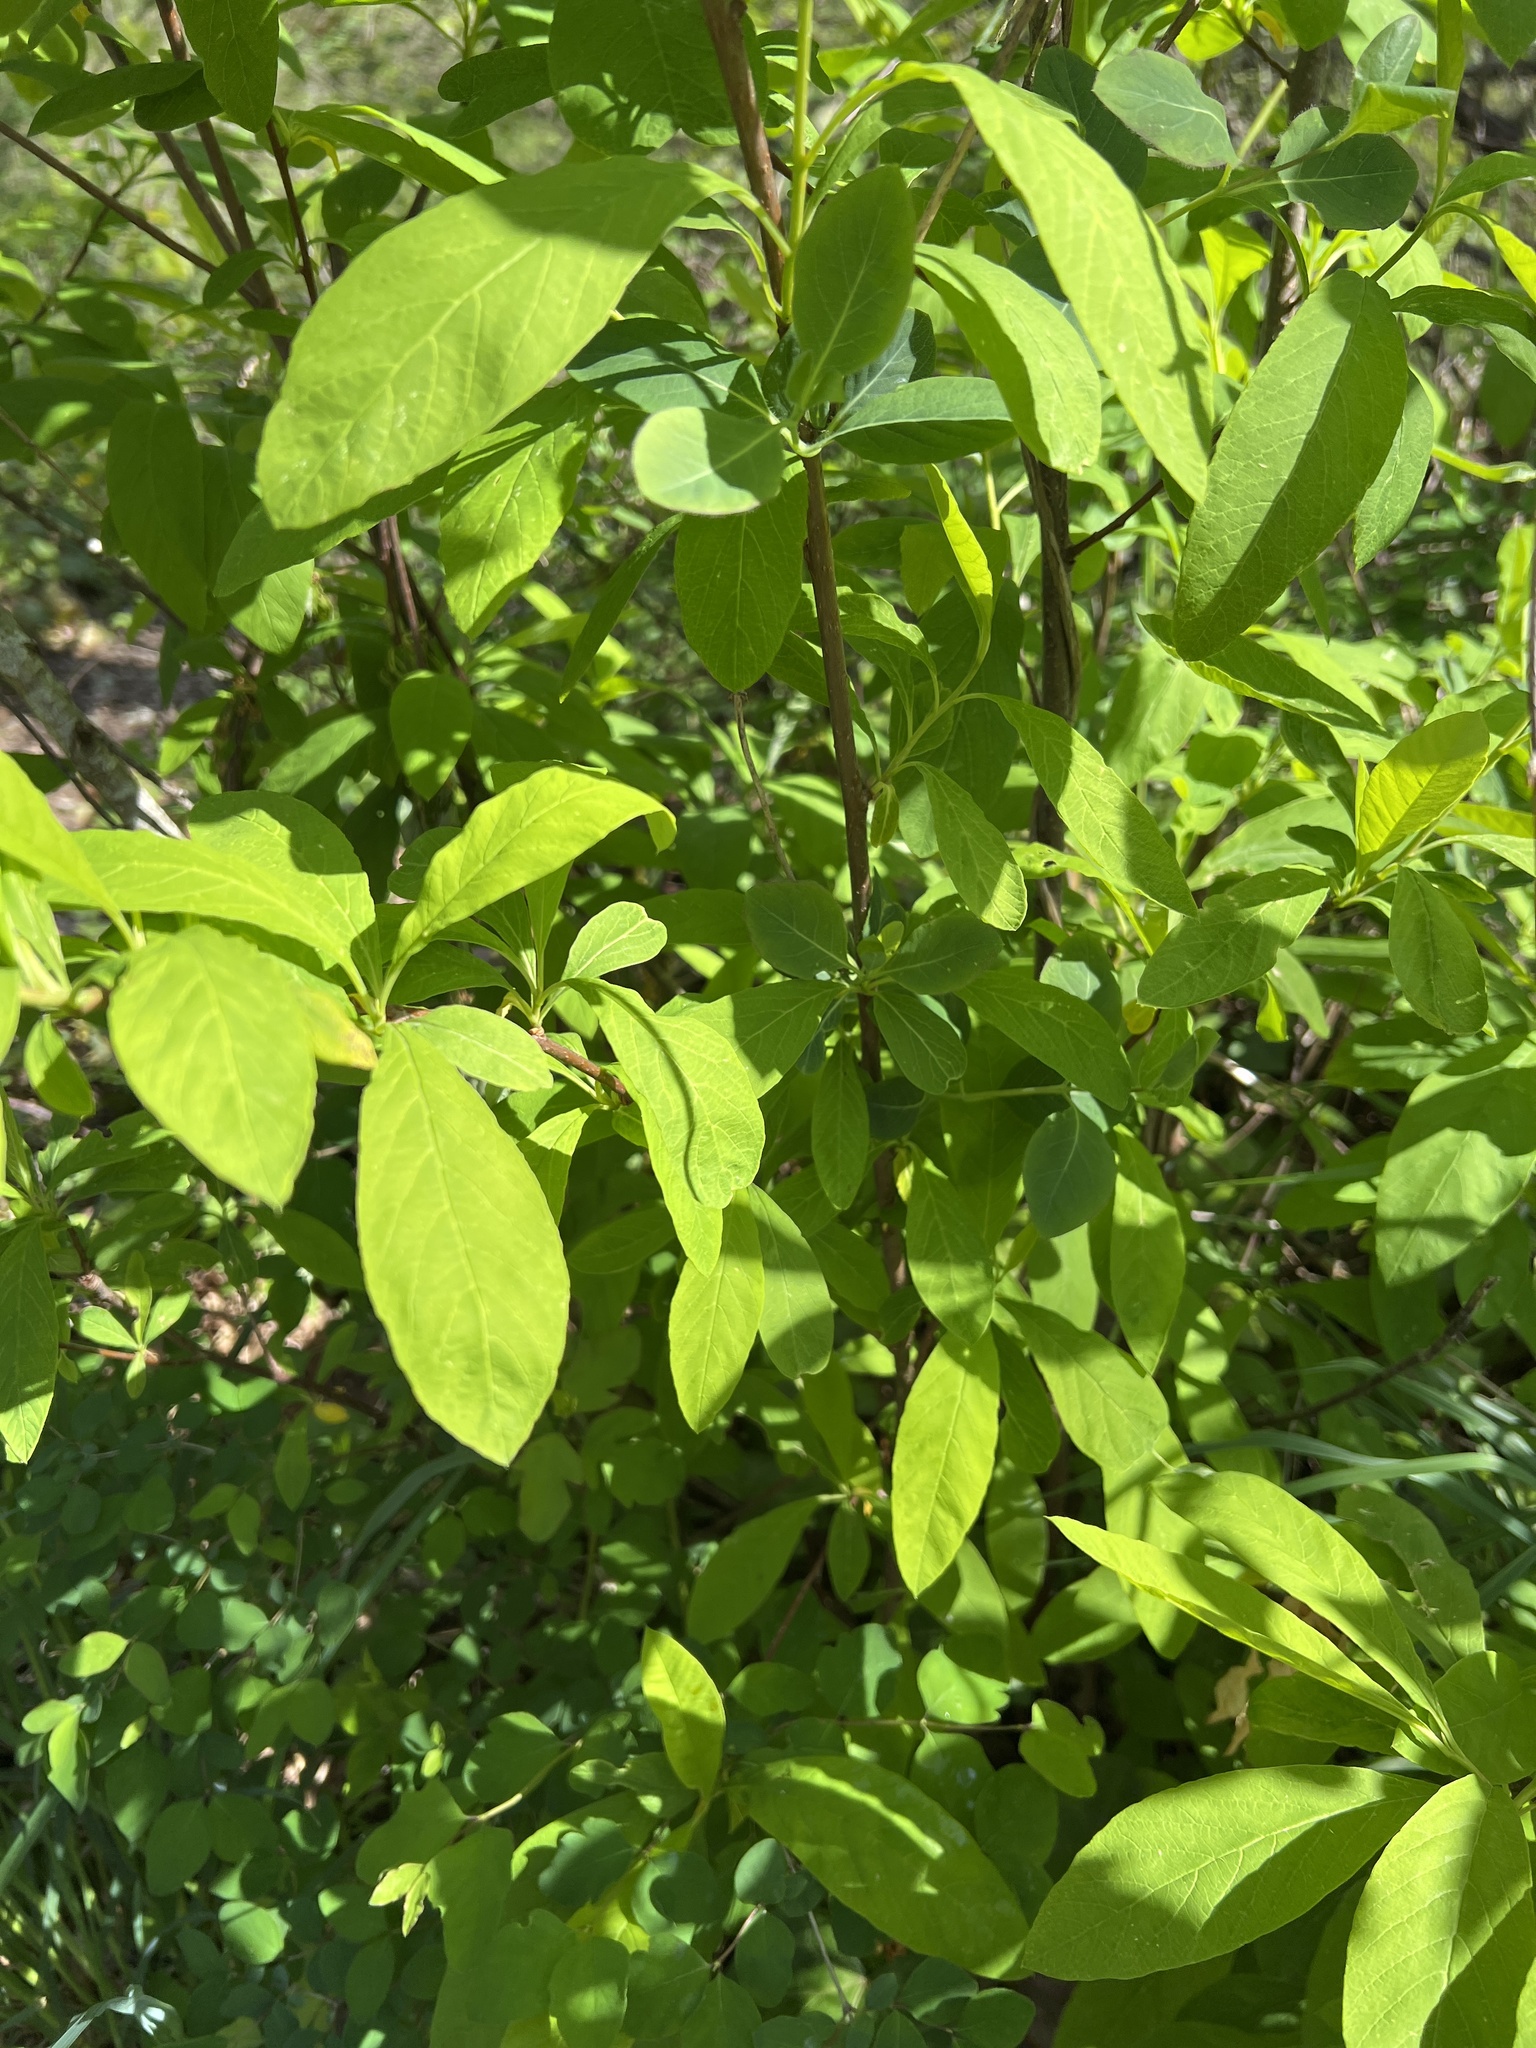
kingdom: Plantae
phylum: Tracheophyta
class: Magnoliopsida
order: Rosales
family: Rosaceae
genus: Oemleria
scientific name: Oemleria cerasiformis
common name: Osoberry
